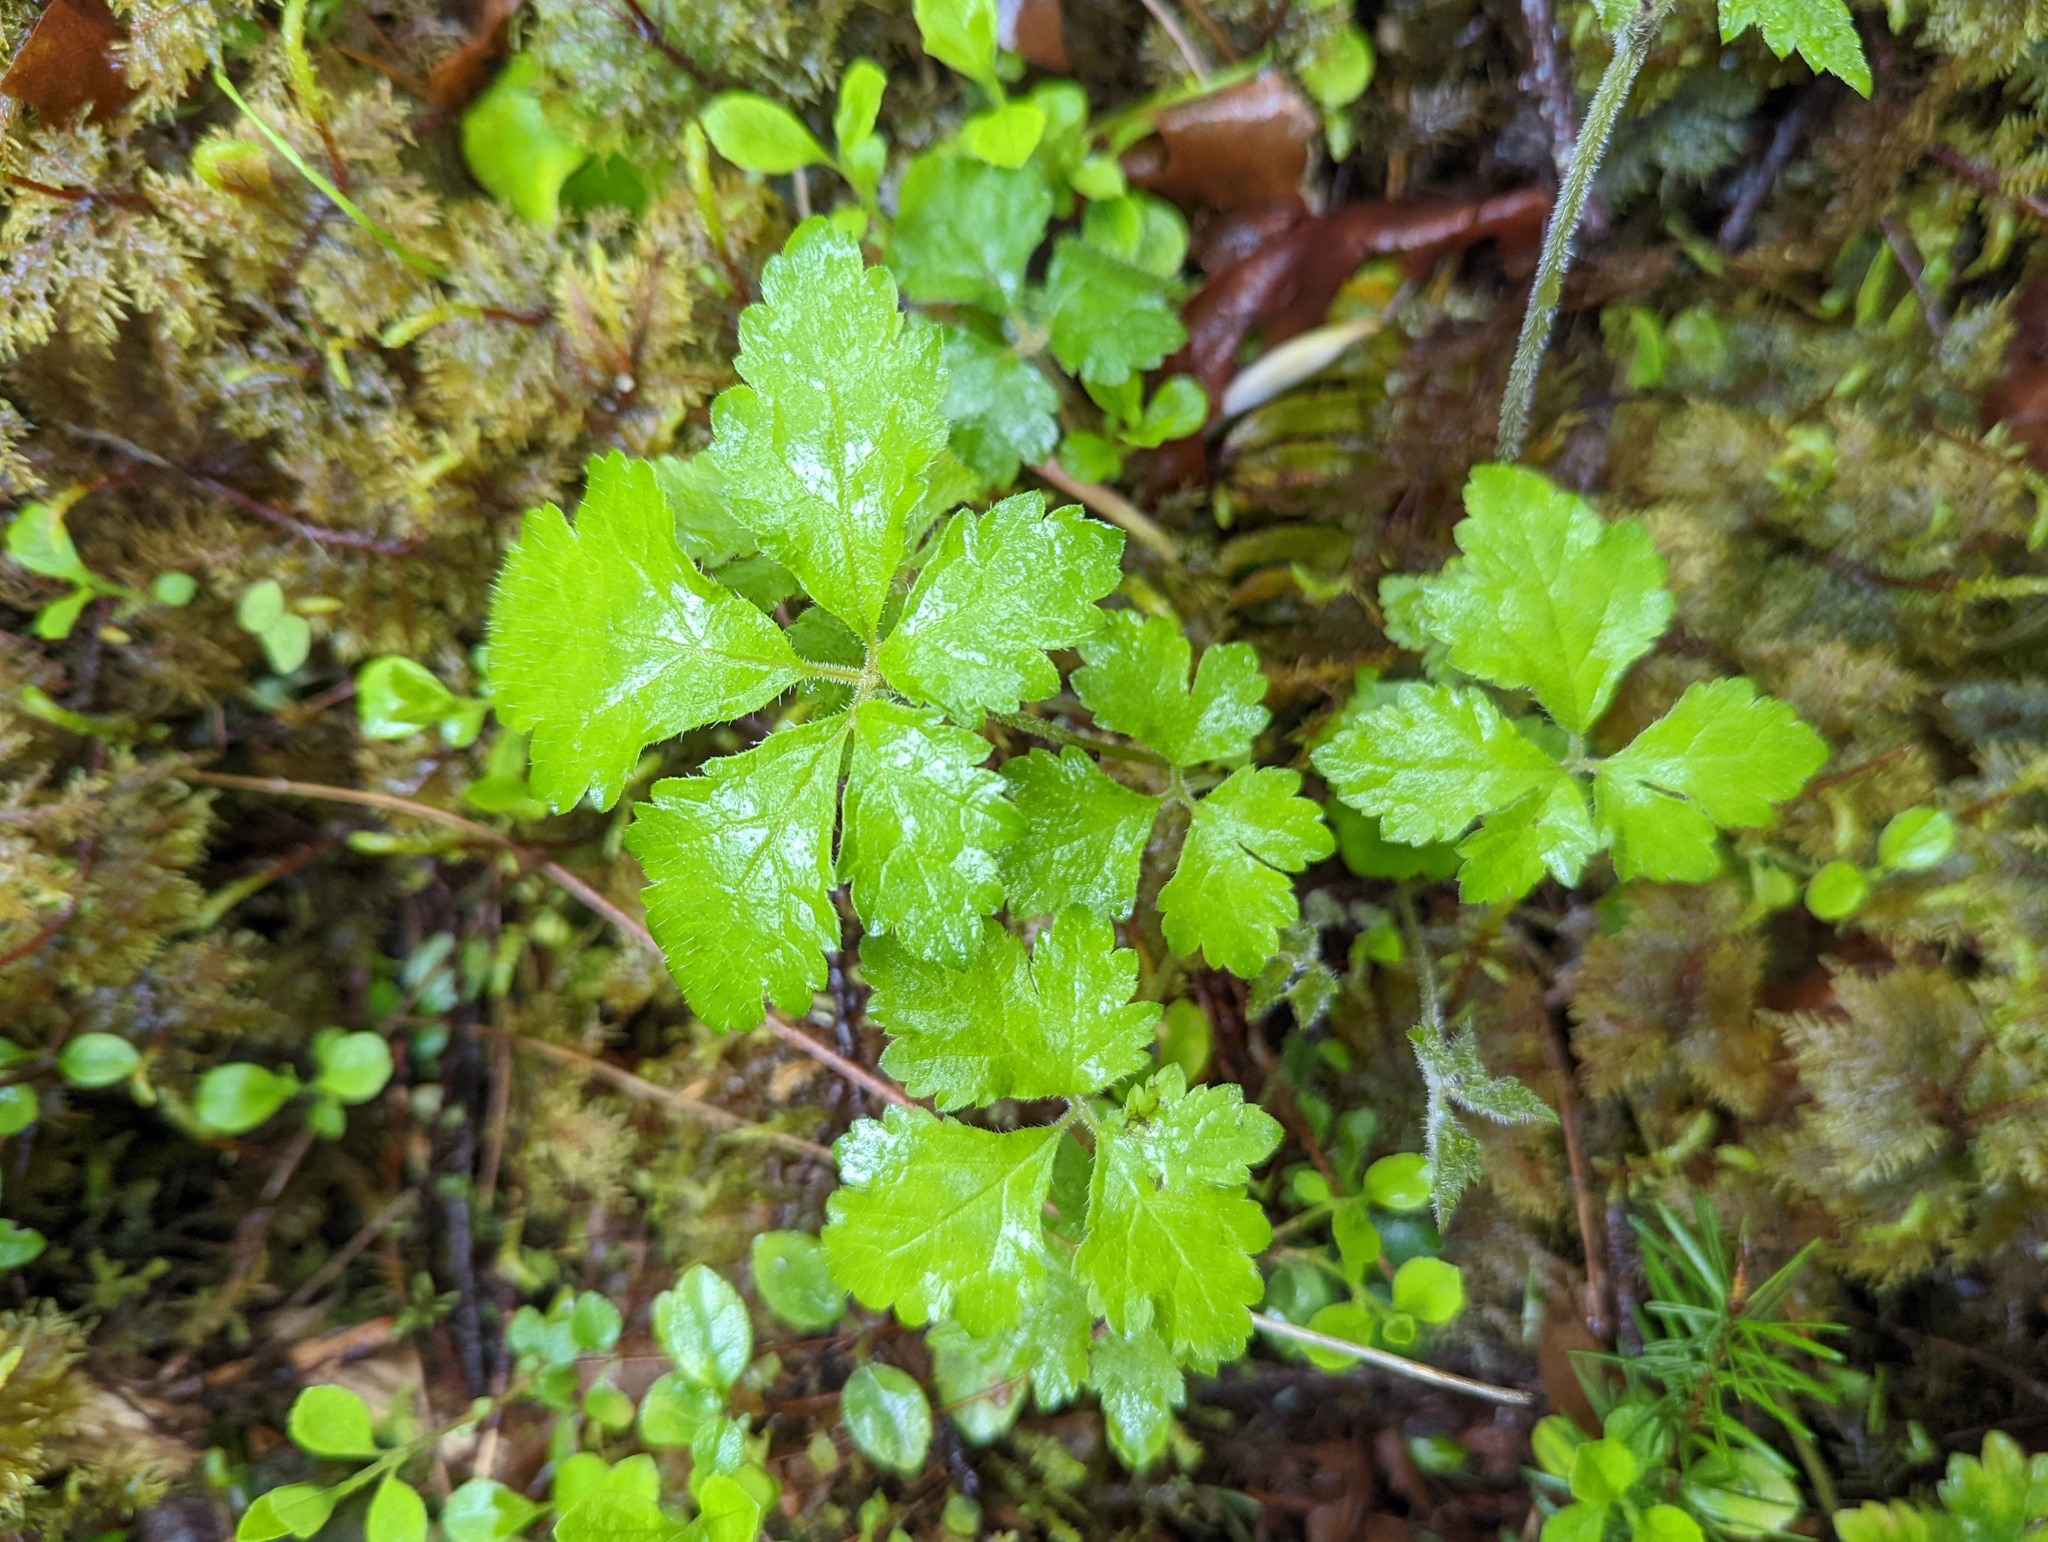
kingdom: Plantae
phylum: Tracheophyta
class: Magnoliopsida
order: Rosales
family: Rosaceae
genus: Rubus
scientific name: Rubus pedatus
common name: Creeping raspberry
